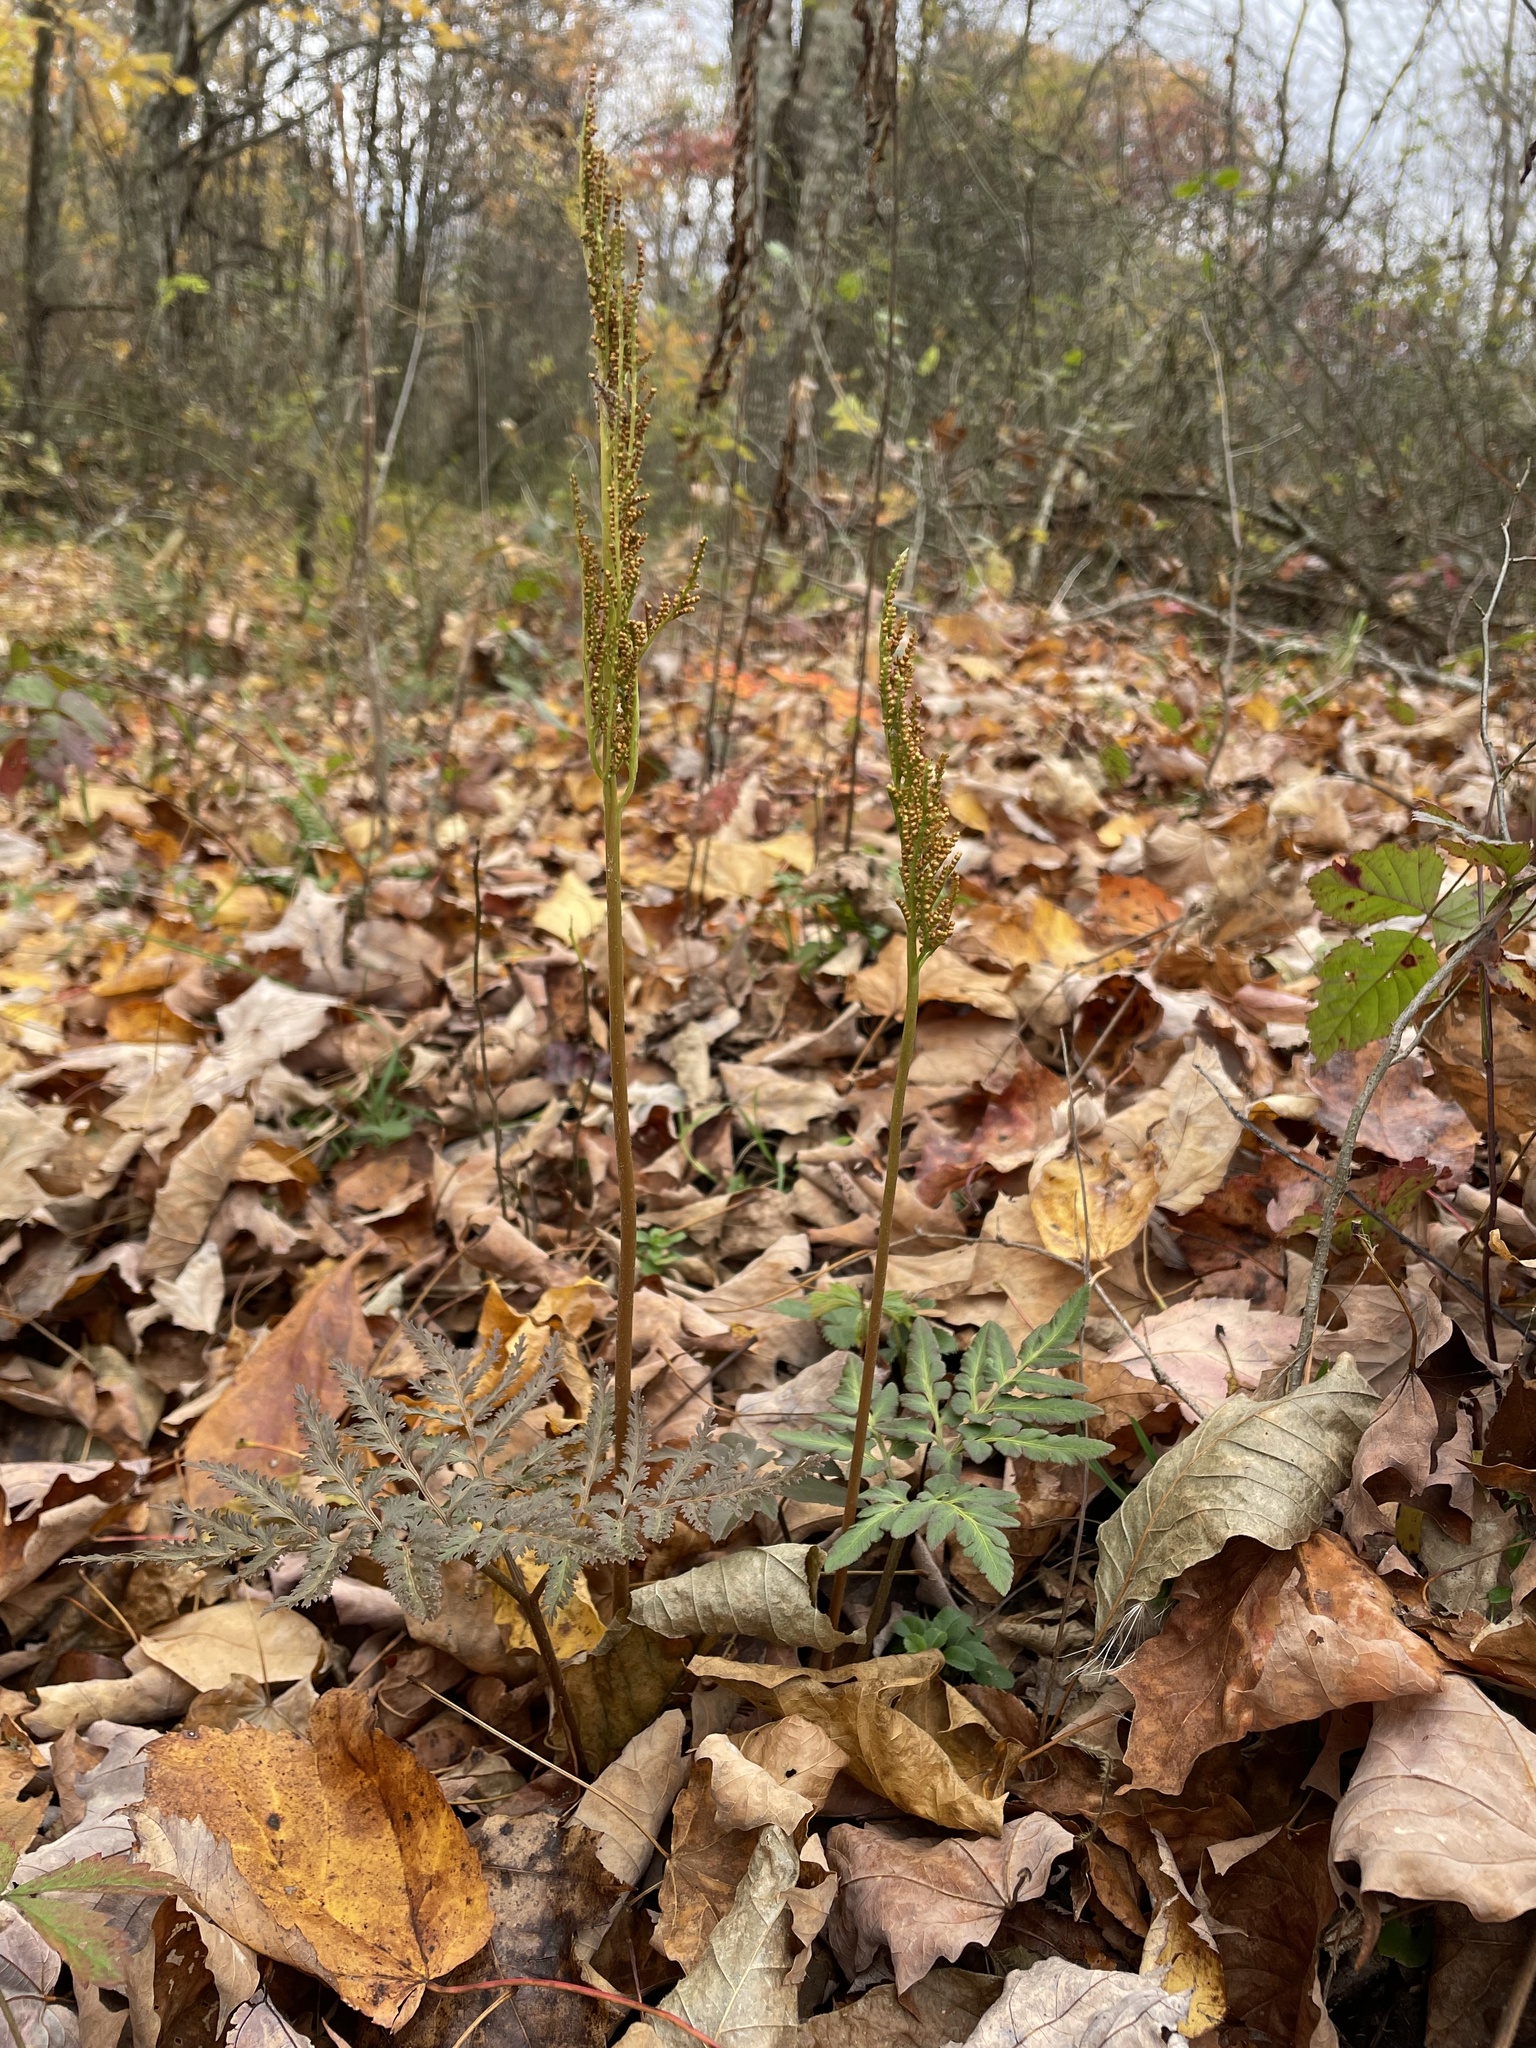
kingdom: Plantae
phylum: Tracheophyta
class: Polypodiopsida
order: Ophioglossales
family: Ophioglossaceae
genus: Sceptridium
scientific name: Sceptridium dissectum
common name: Cut-leaved grapefern
